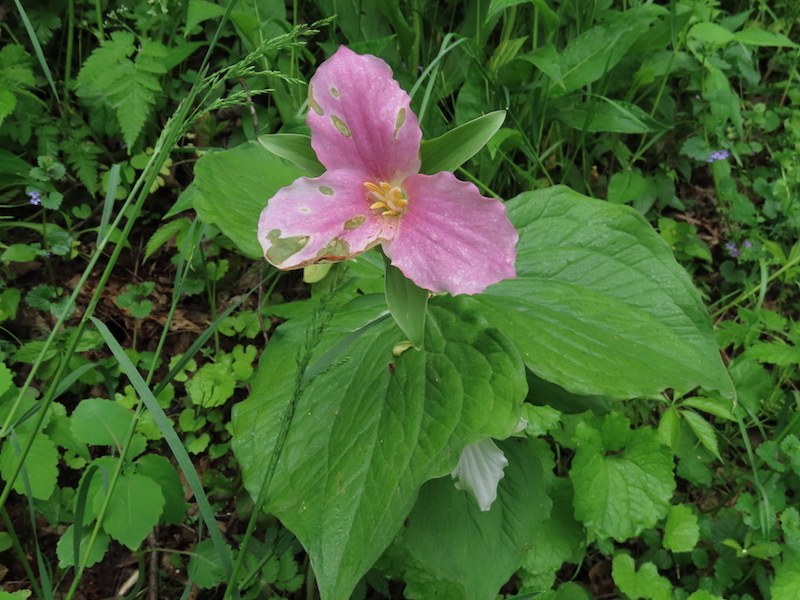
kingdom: Plantae
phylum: Tracheophyta
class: Liliopsida
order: Liliales
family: Melanthiaceae
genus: Trillium
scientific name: Trillium grandiflorum
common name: Great white trillium
